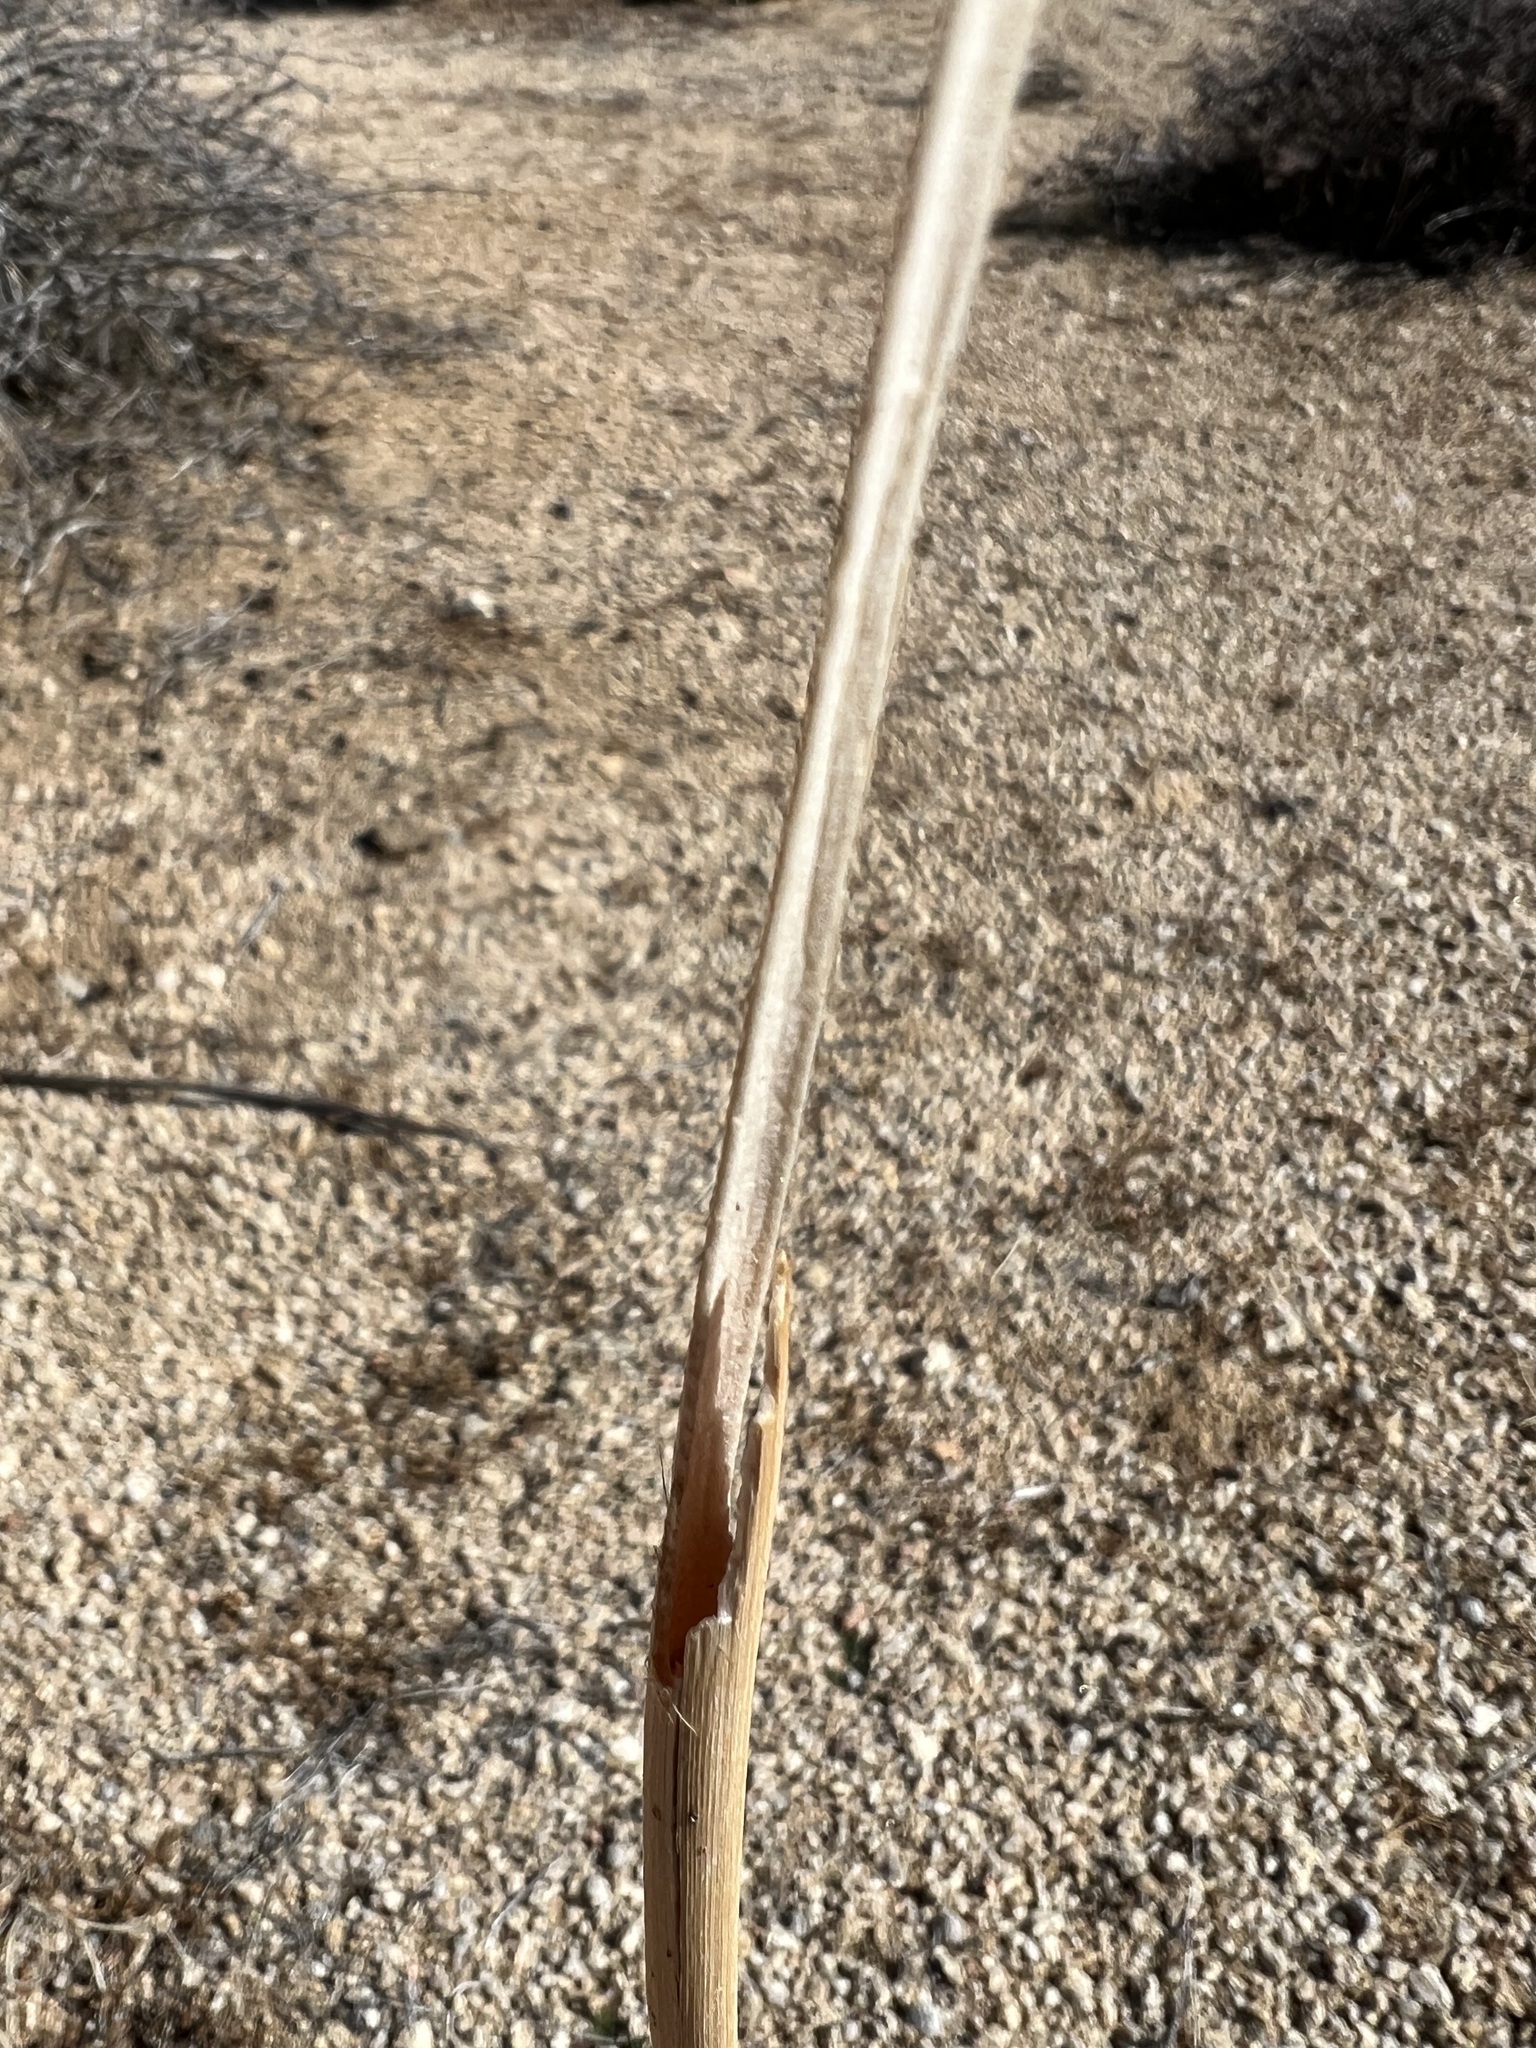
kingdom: Plantae
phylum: Tracheophyta
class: Magnoliopsida
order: Caryophyllales
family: Polygonaceae
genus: Eriogonum
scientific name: Eriogonum inflatum
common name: Desert trumpet
